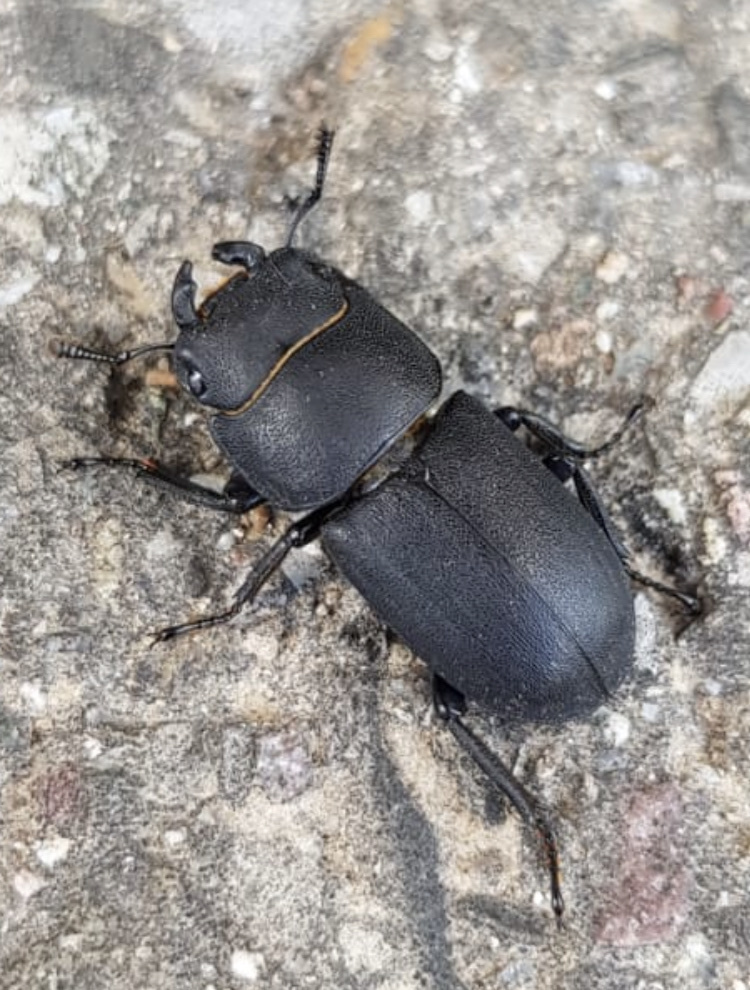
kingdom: Animalia
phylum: Arthropoda
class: Insecta
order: Coleoptera
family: Lucanidae
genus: Dorcus
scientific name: Dorcus parallelipipedus
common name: Lesser stag beetle
